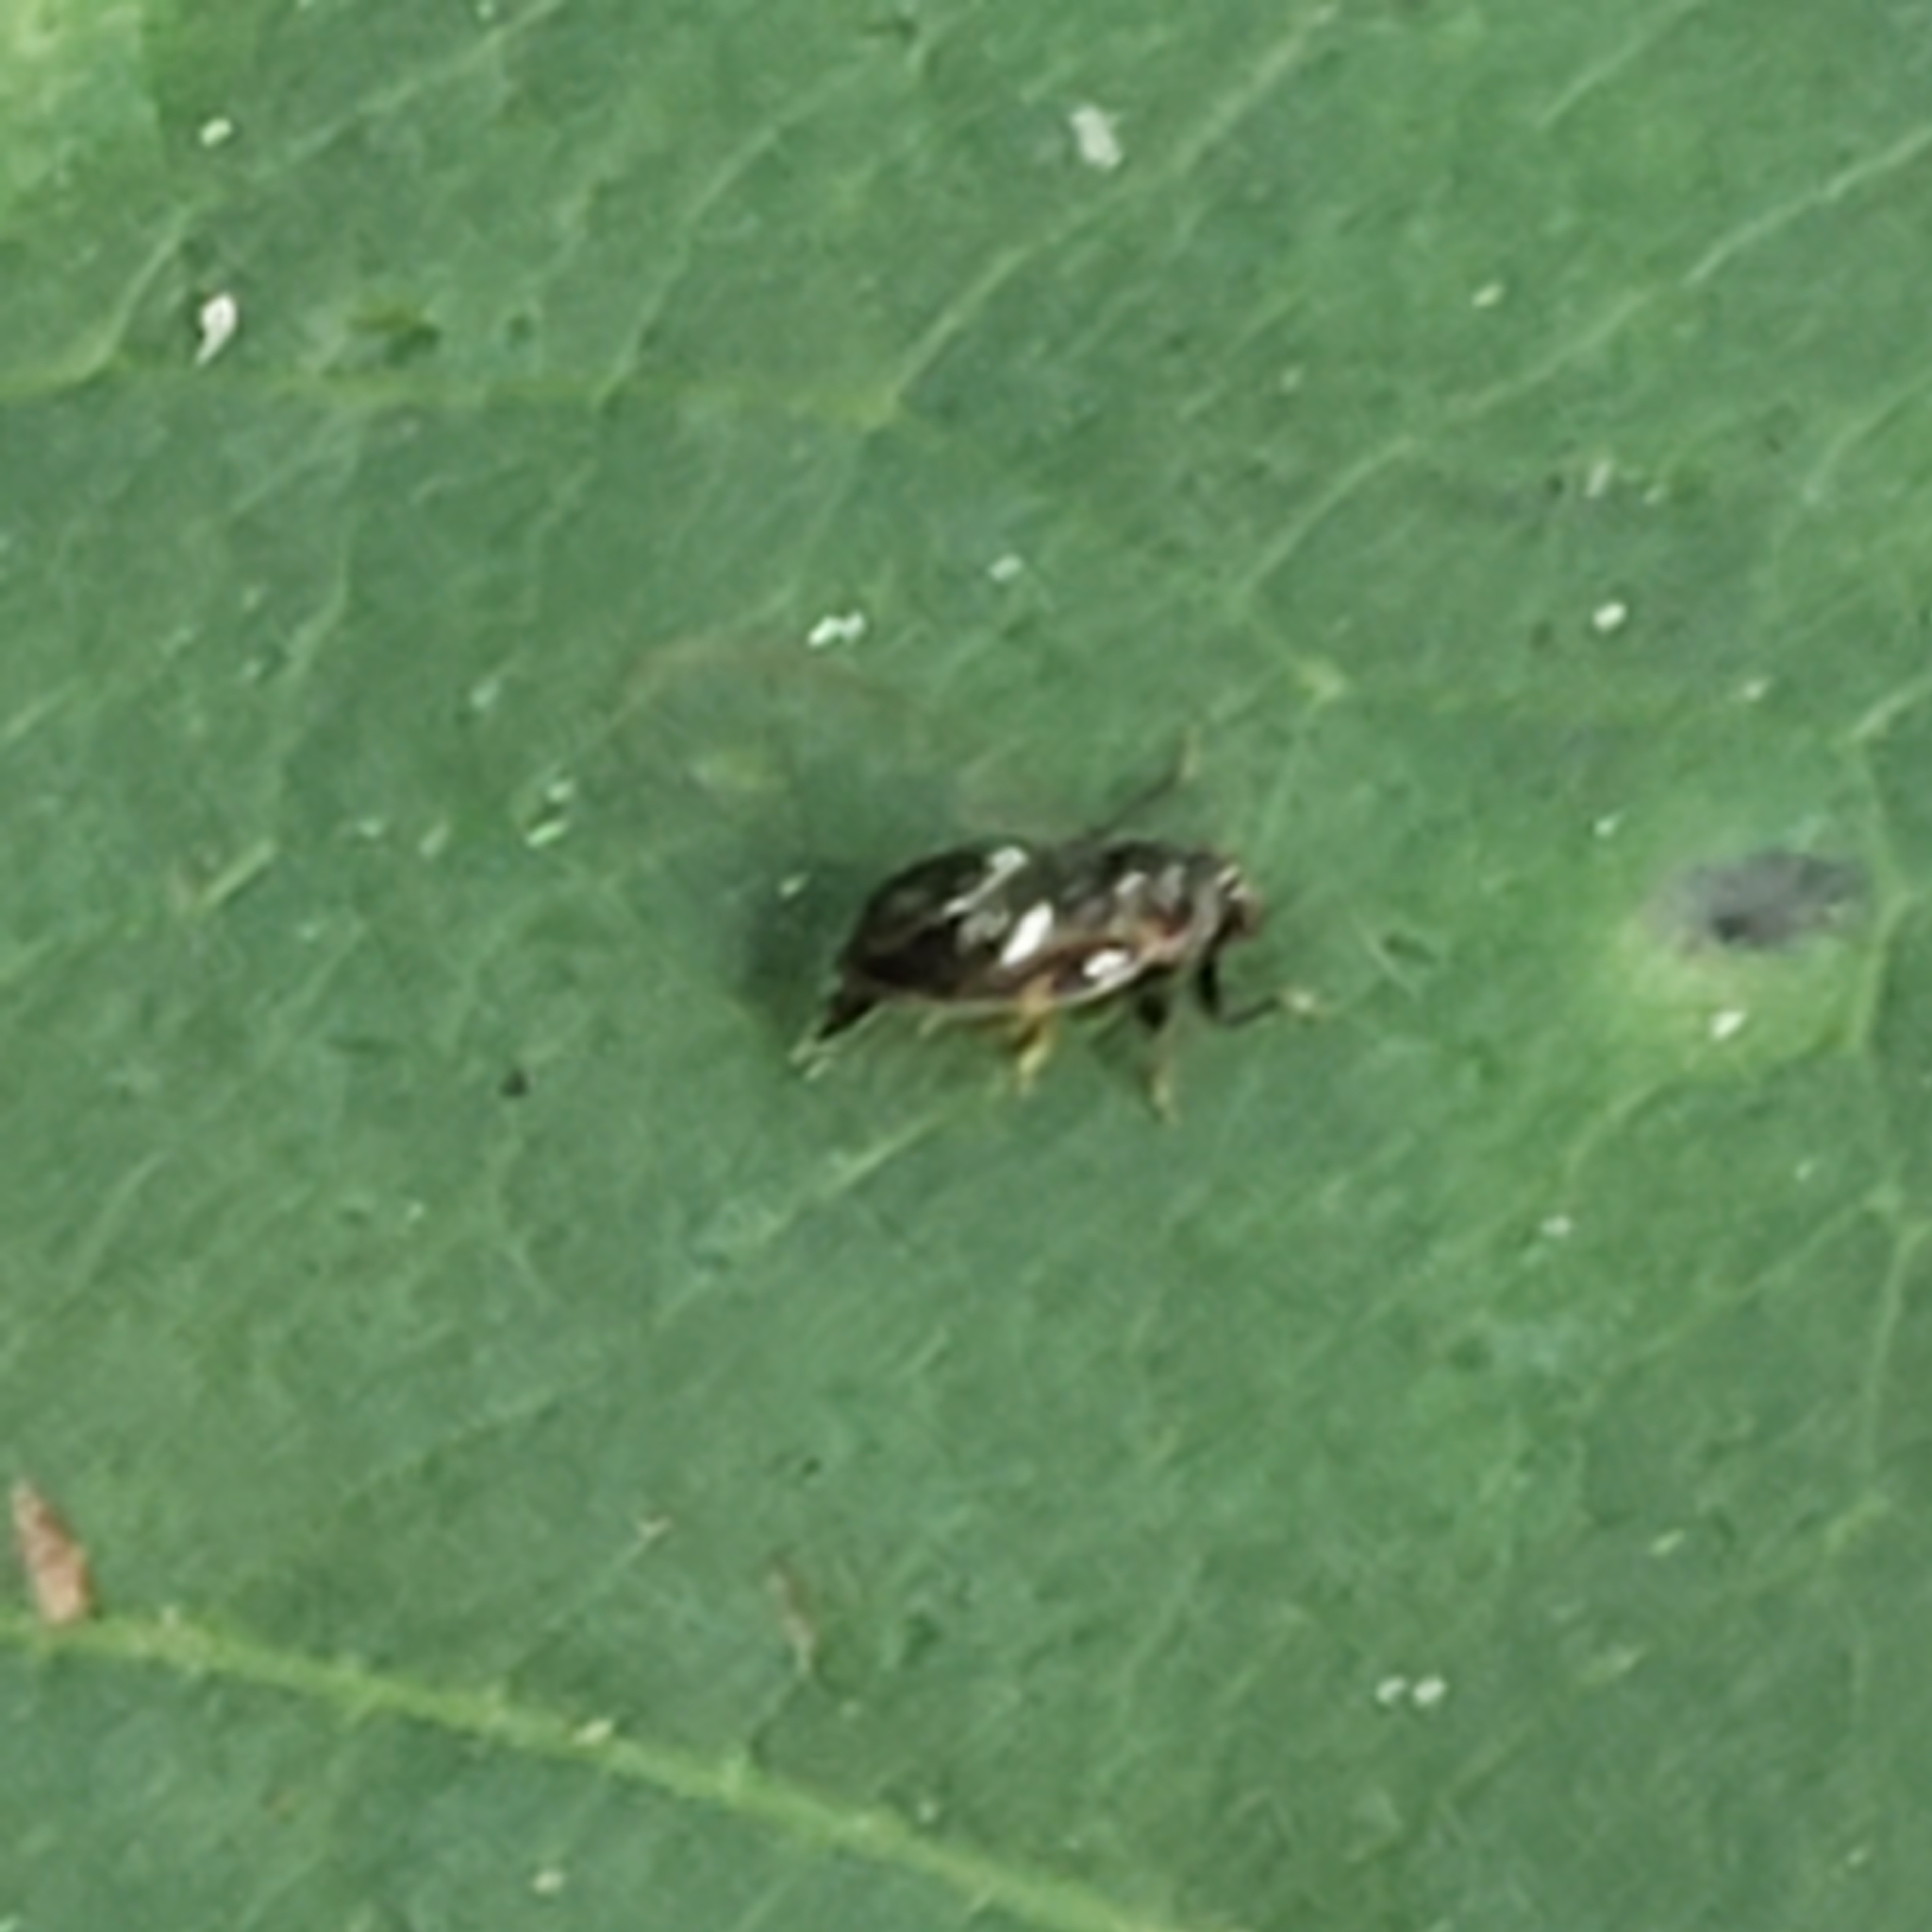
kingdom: Animalia
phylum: Arthropoda
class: Insecta
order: Hemiptera
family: Triozidae
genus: Baeoalitriozus
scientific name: Baeoalitriozus diospyri
